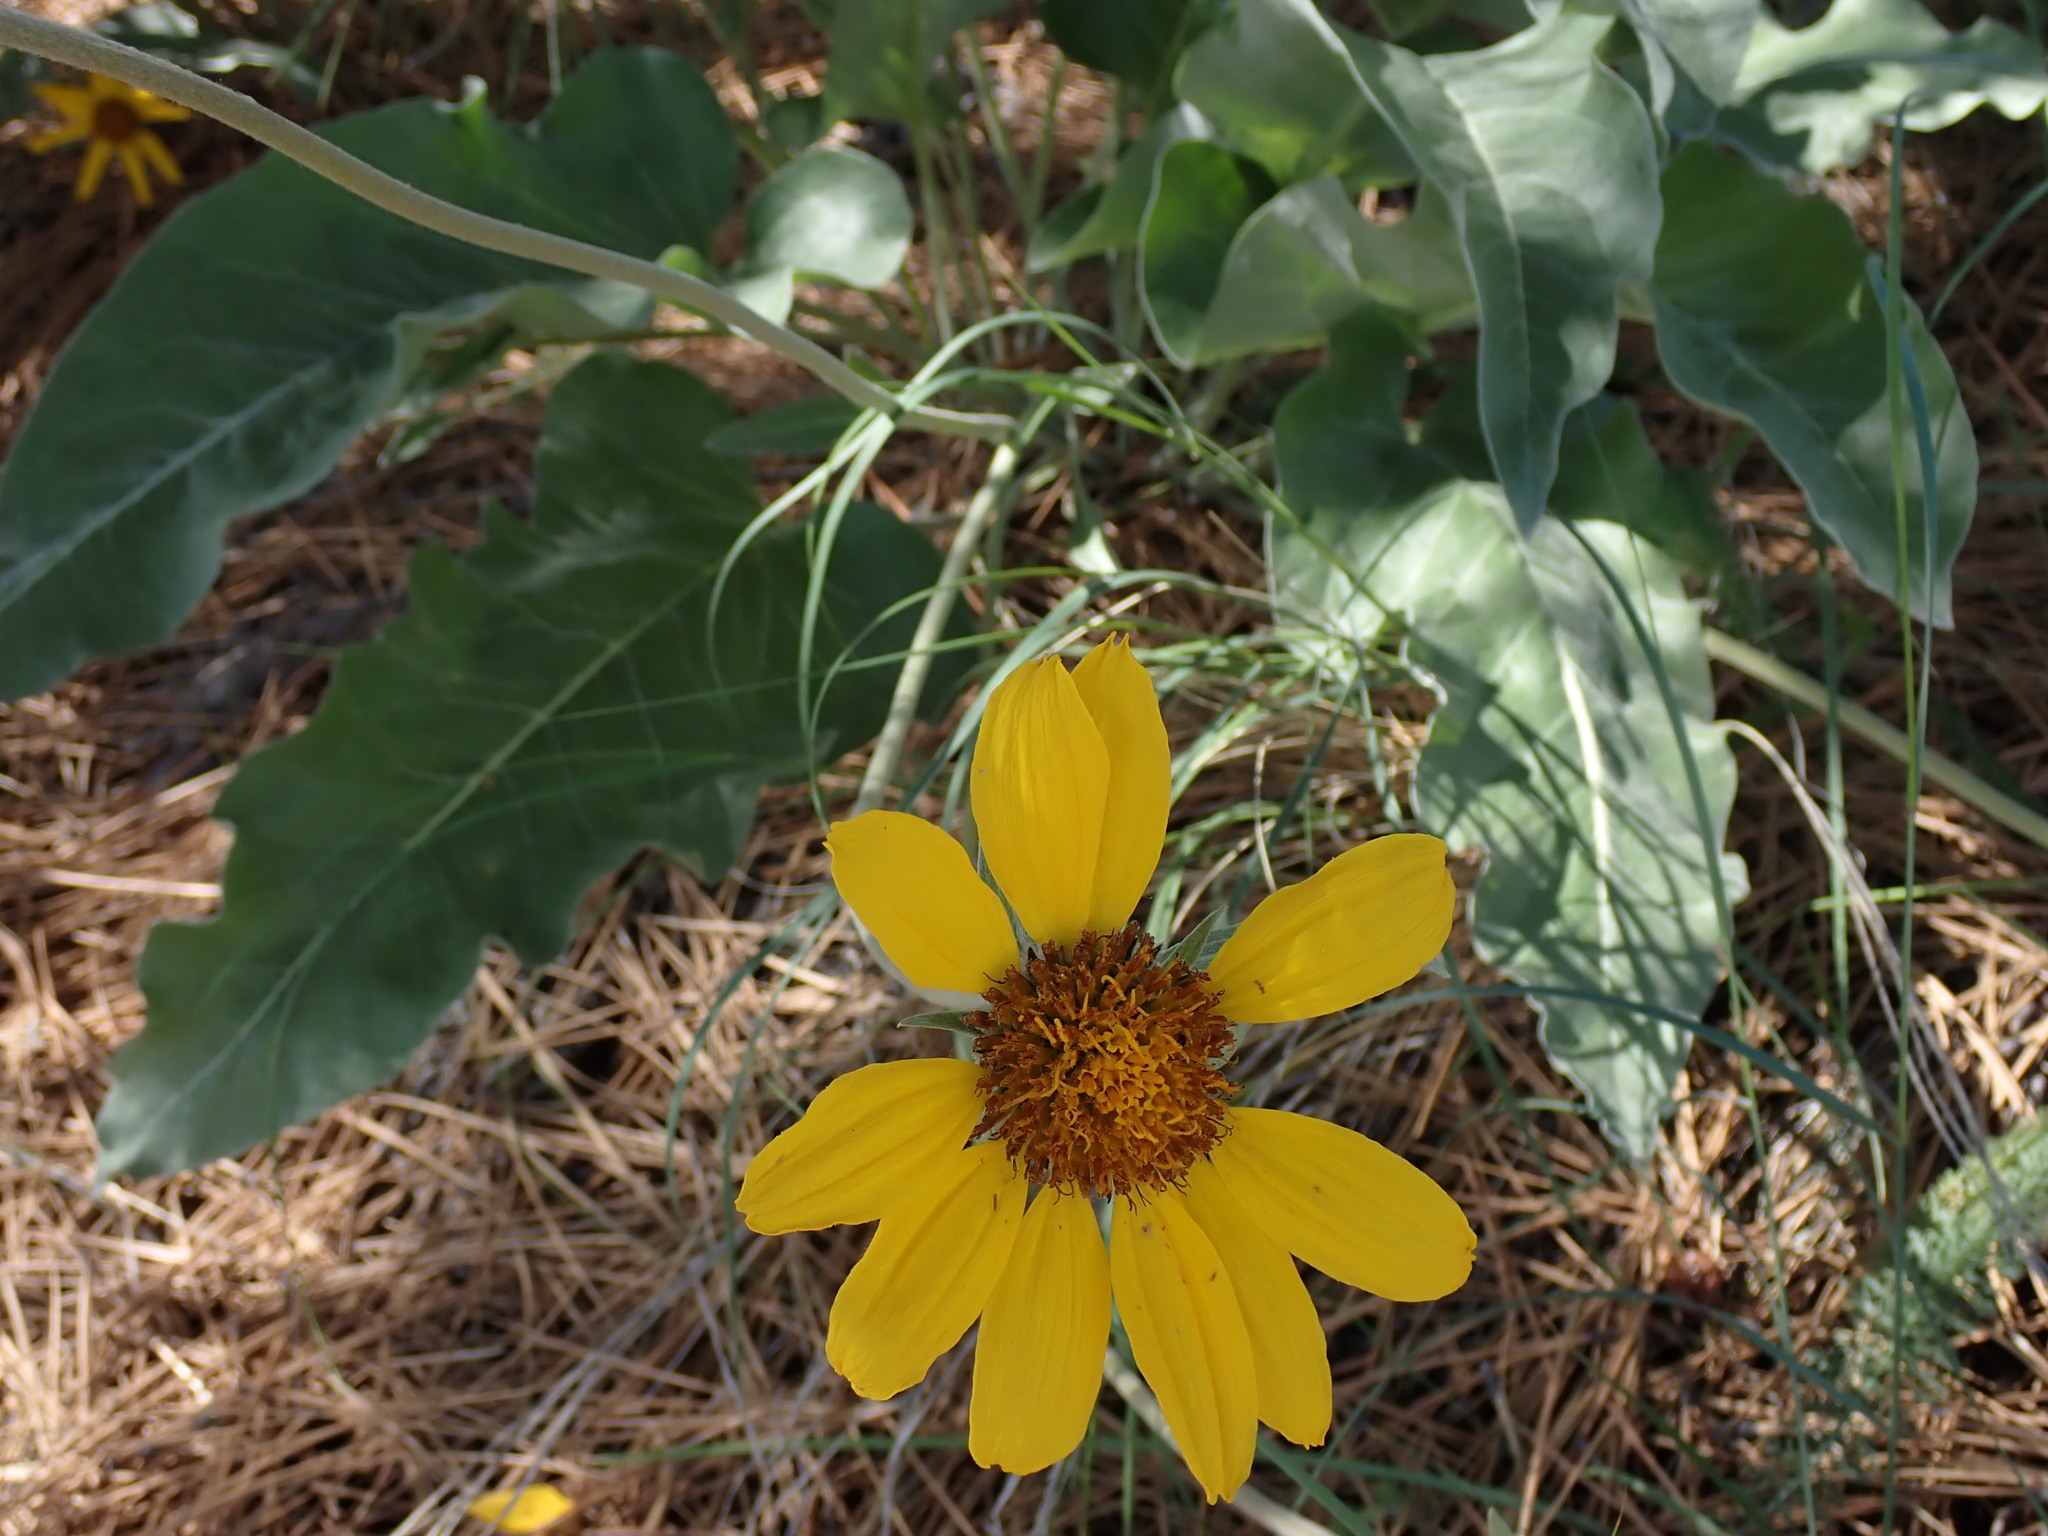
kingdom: Plantae
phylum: Tracheophyta
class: Magnoliopsida
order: Asterales
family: Asteraceae
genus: Wyethia
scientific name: Wyethia sagittata
